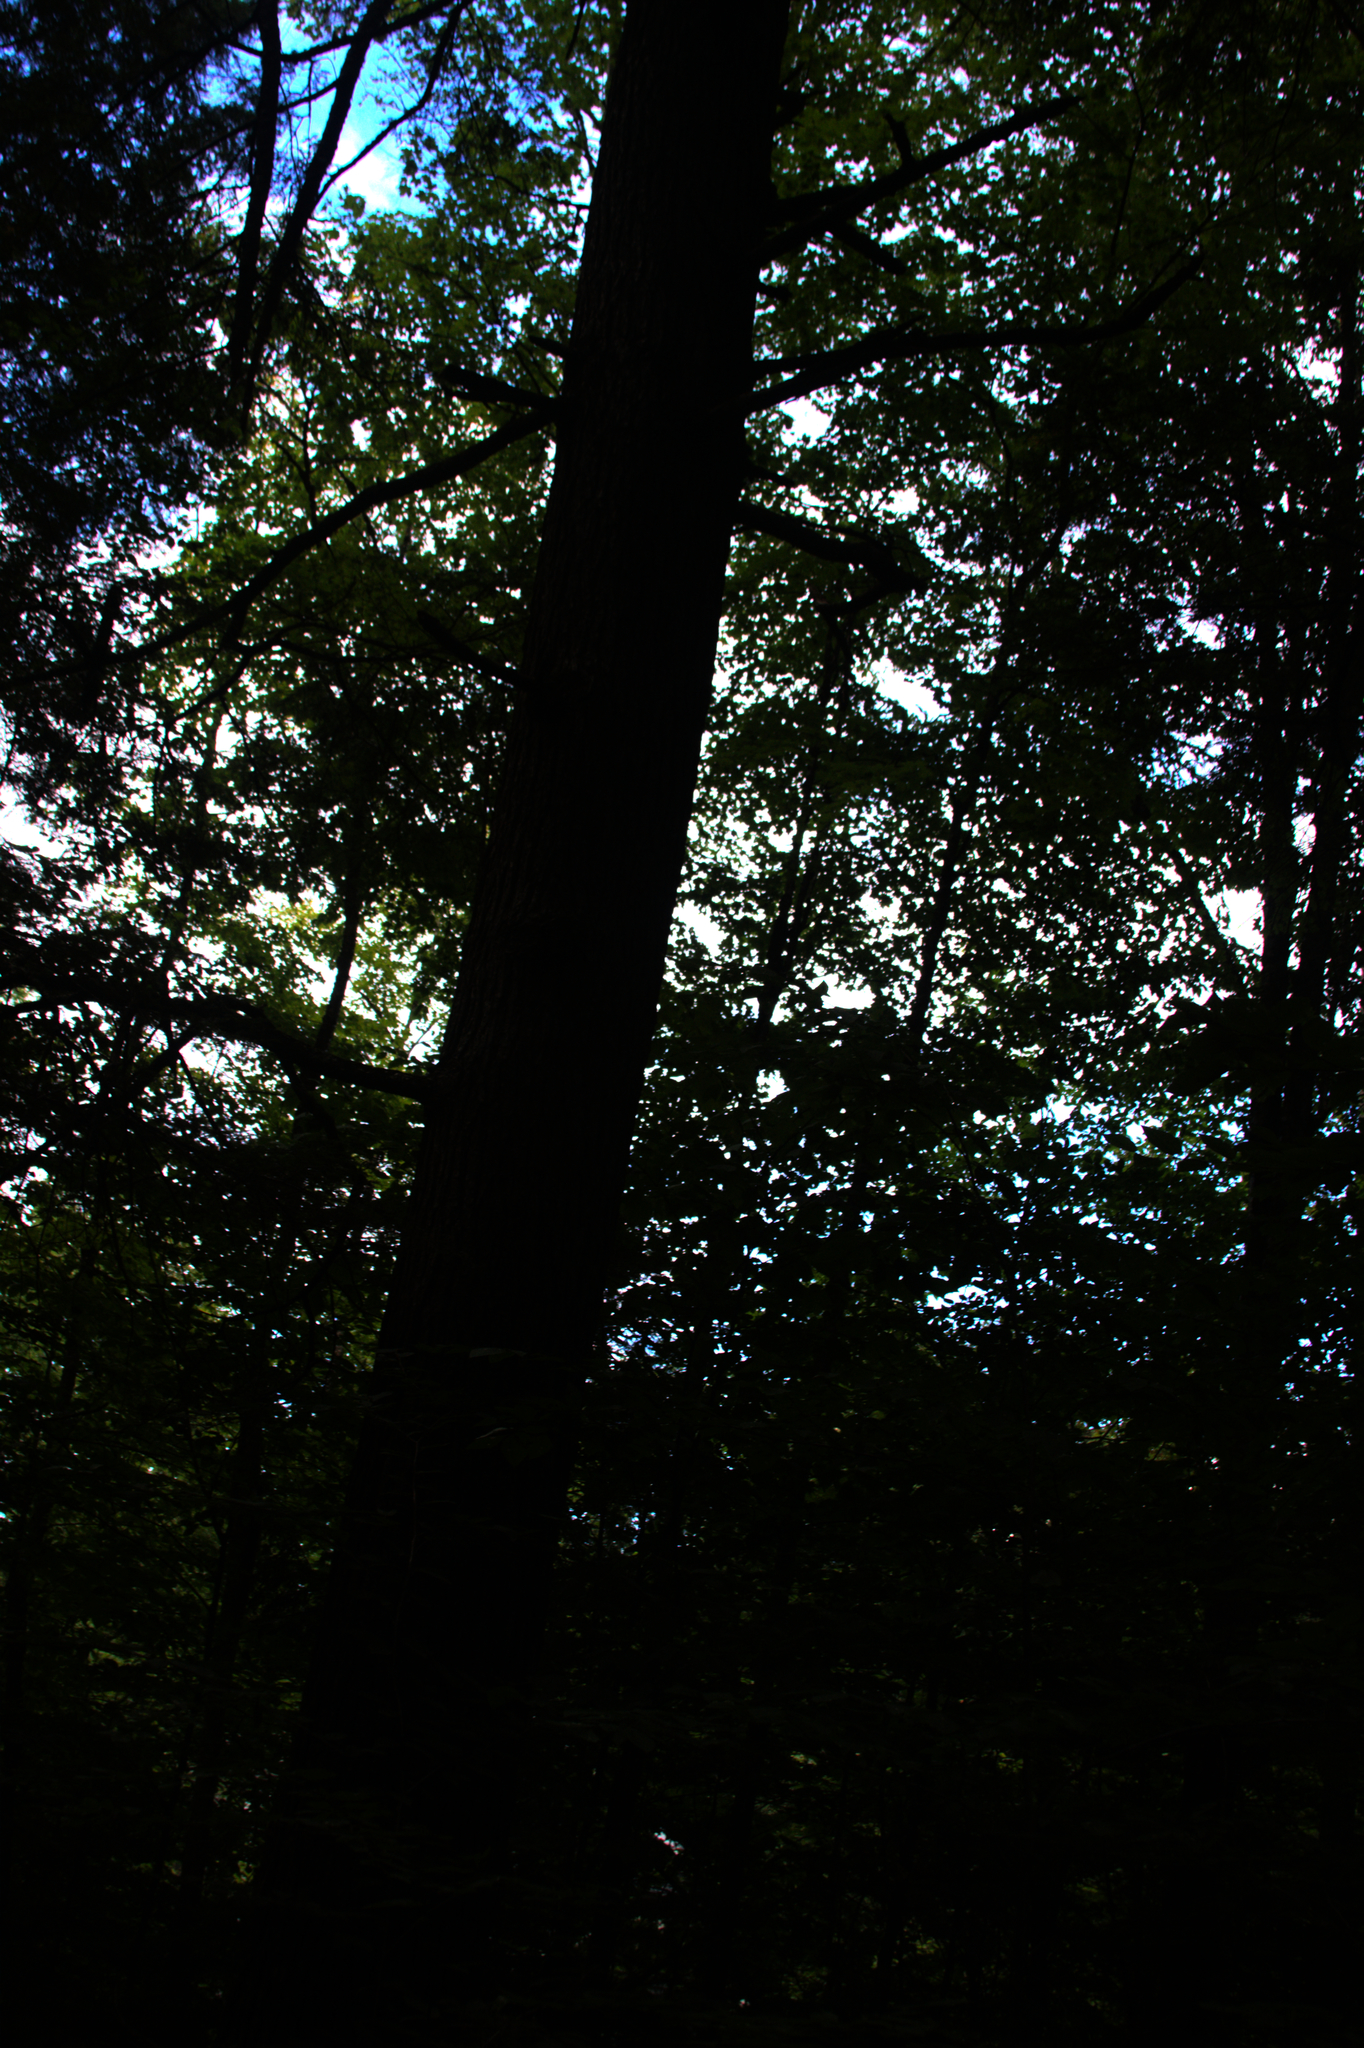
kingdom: Plantae
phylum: Tracheophyta
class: Pinopsida
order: Pinales
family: Pinaceae
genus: Tsuga
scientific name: Tsuga canadensis
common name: Eastern hemlock
